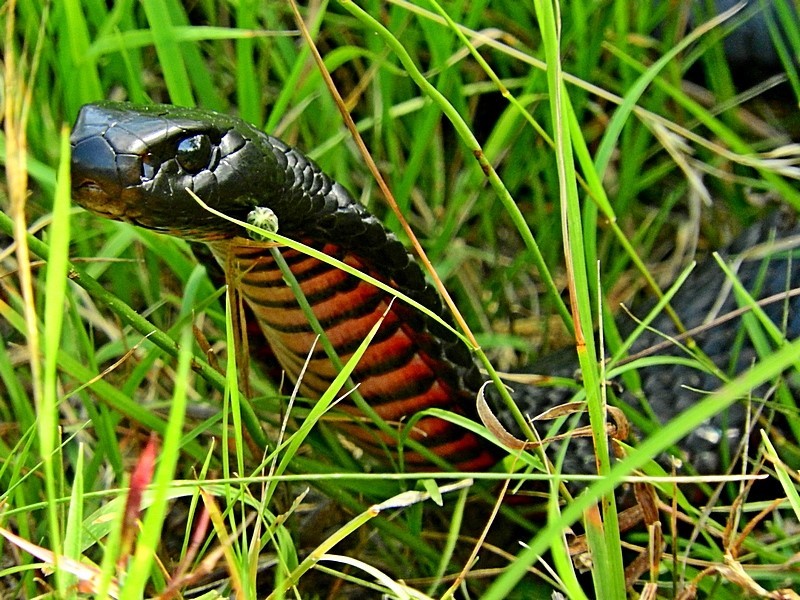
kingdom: Animalia
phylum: Chordata
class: Squamata
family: Elapidae
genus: Pseudechis
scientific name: Pseudechis porphyriacus
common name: Australian black snake
